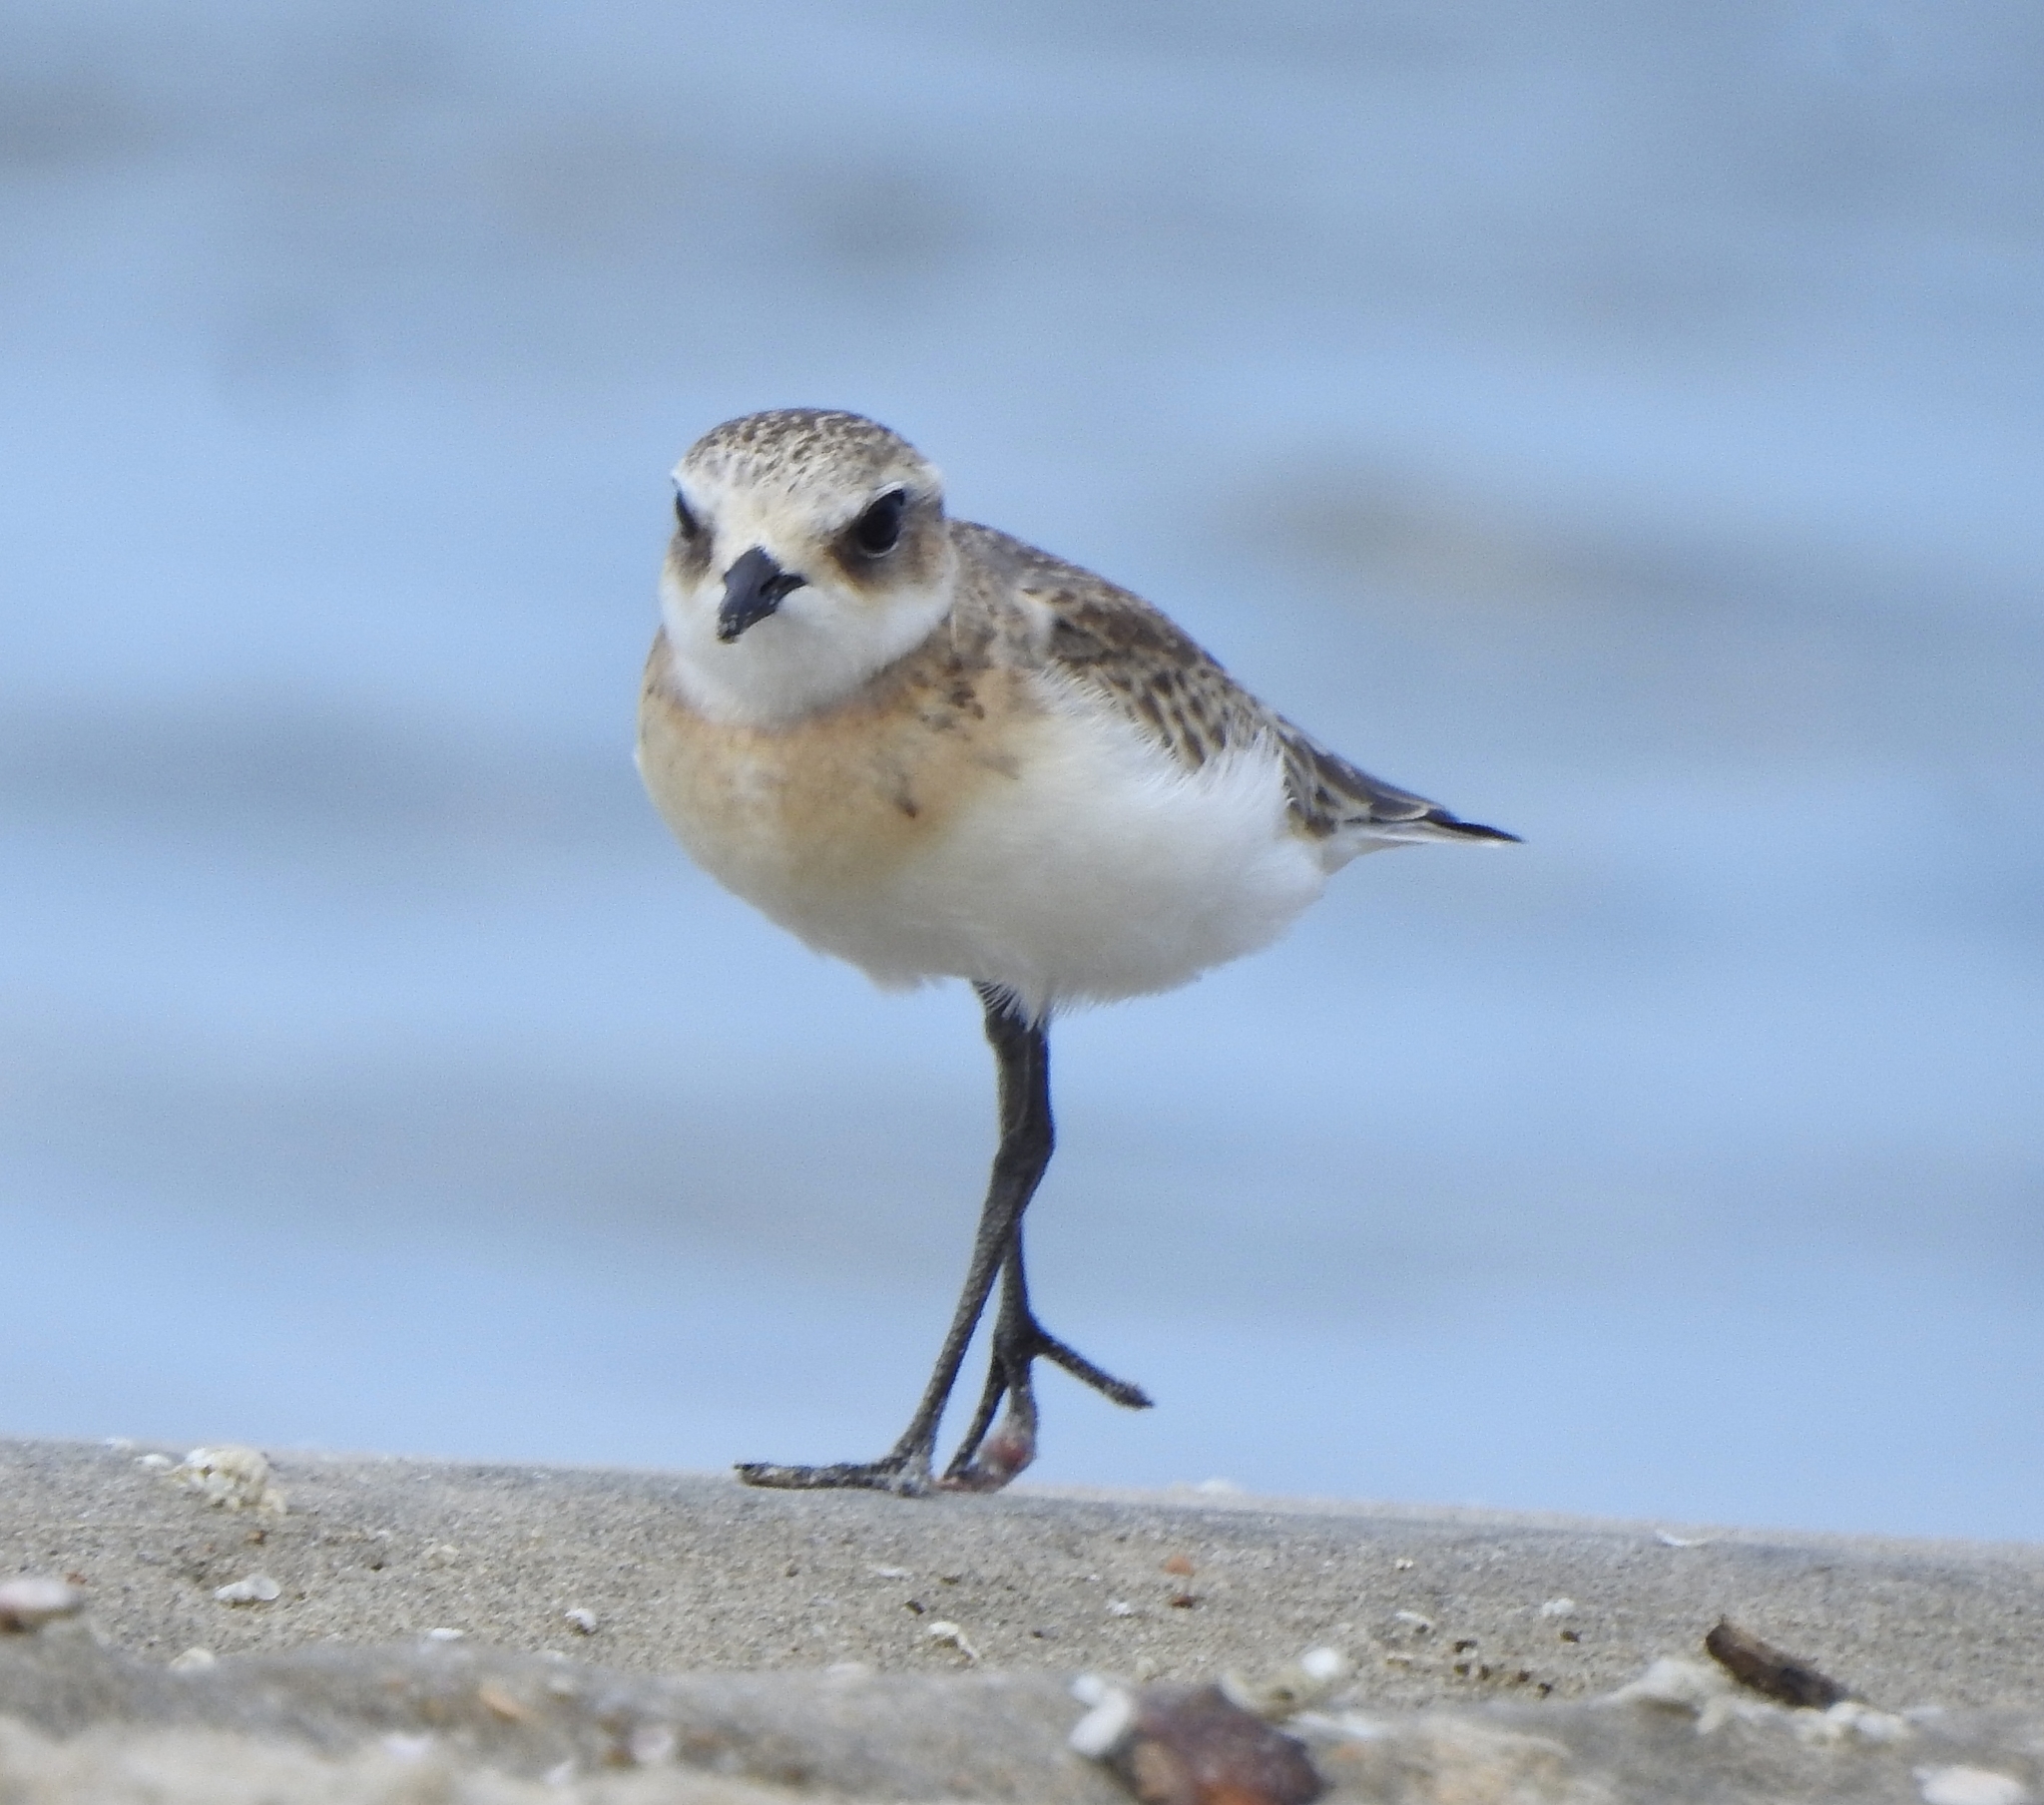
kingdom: Animalia
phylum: Chordata
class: Aves
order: Charadriiformes
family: Charadriidae
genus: Anarhynchus
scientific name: Anarhynchus
